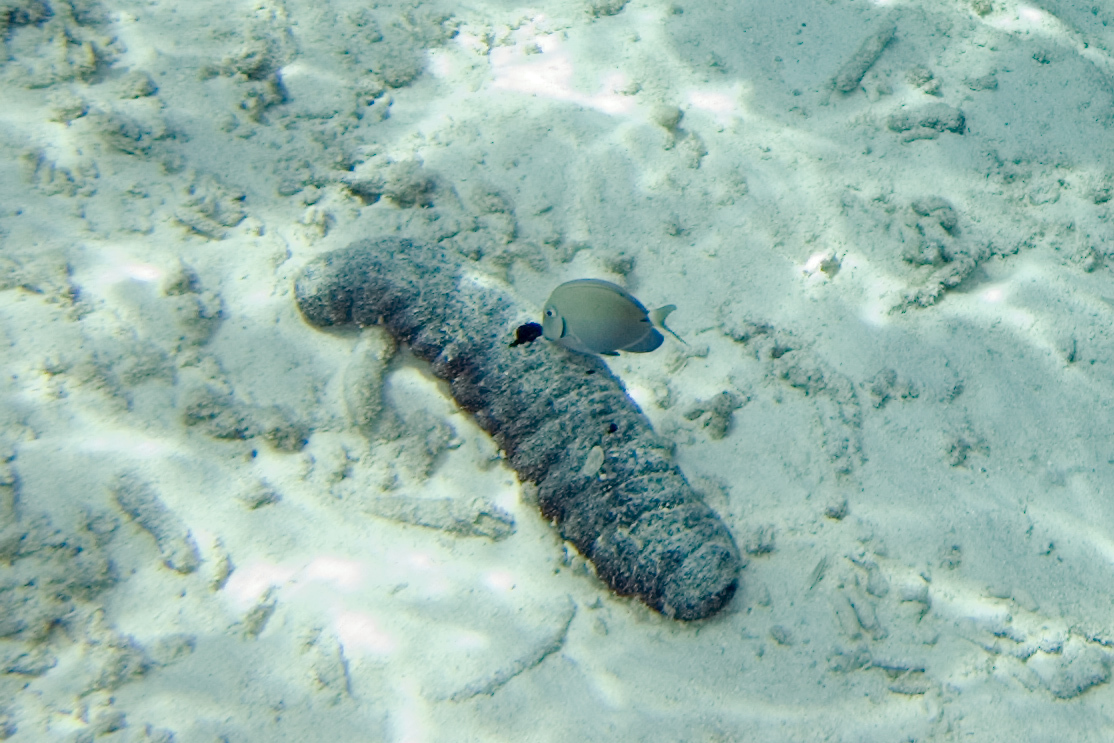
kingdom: Animalia
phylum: Echinodermata
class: Holothuroidea
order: Holothuriida
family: Holothuriidae
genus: Holothuria
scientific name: Holothuria mexicana
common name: Donkey dung sea cucumber
